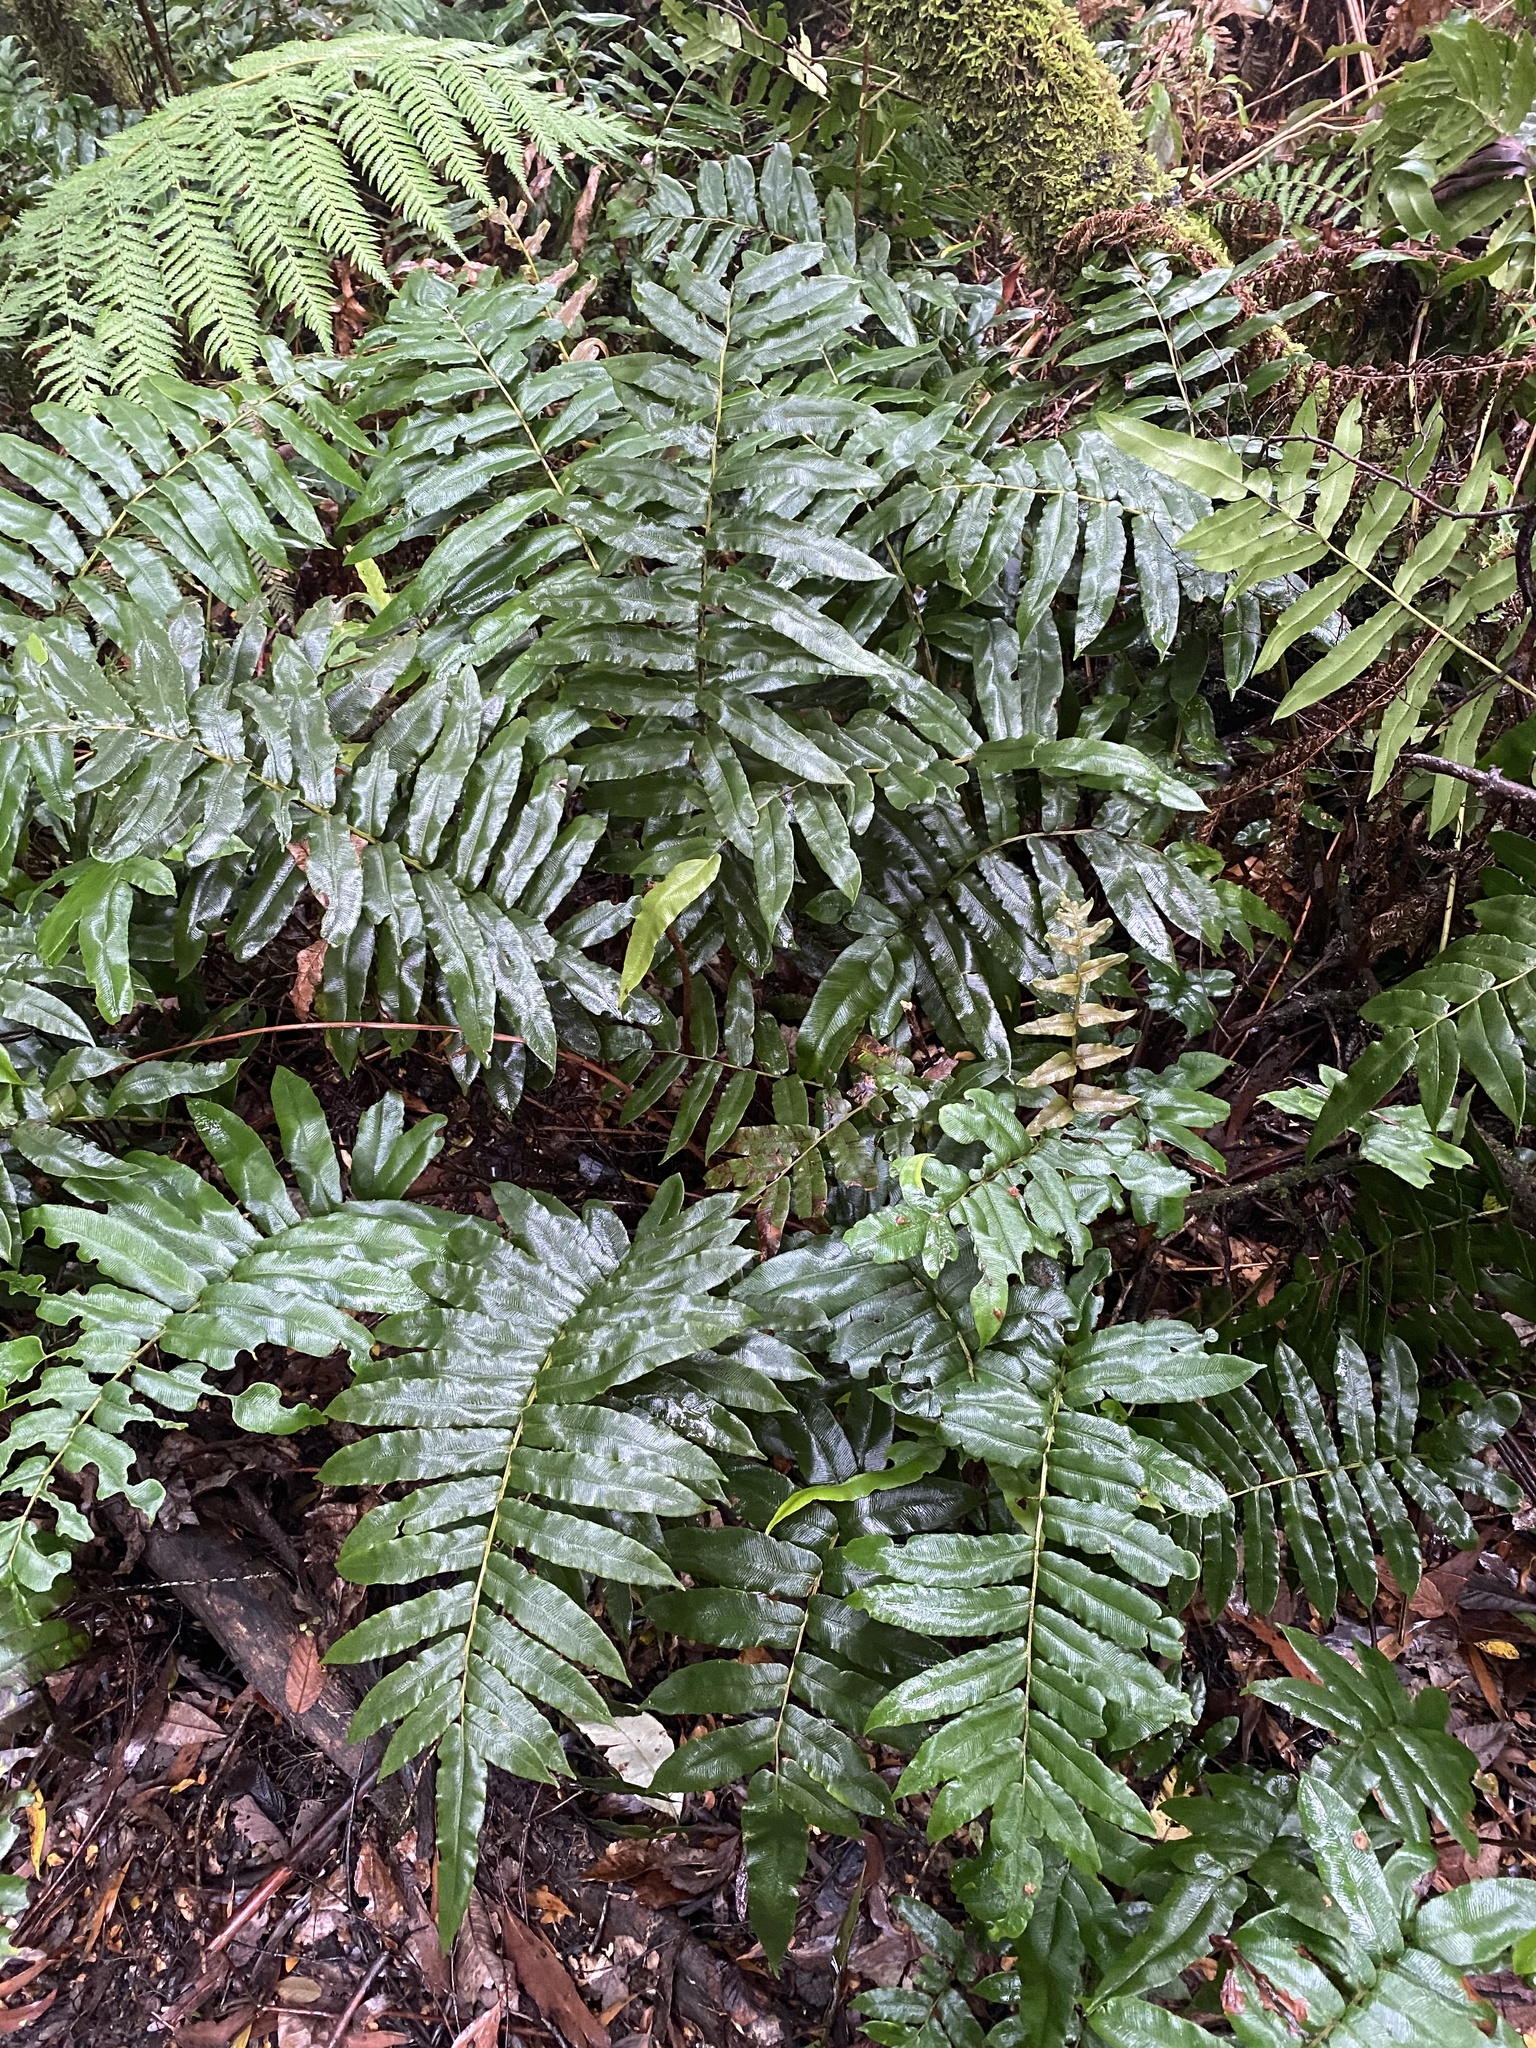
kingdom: Plantae
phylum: Tracheophyta
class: Polypodiopsida
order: Polypodiales
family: Blechnaceae
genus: Parablechnum
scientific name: Parablechnum wattsii
